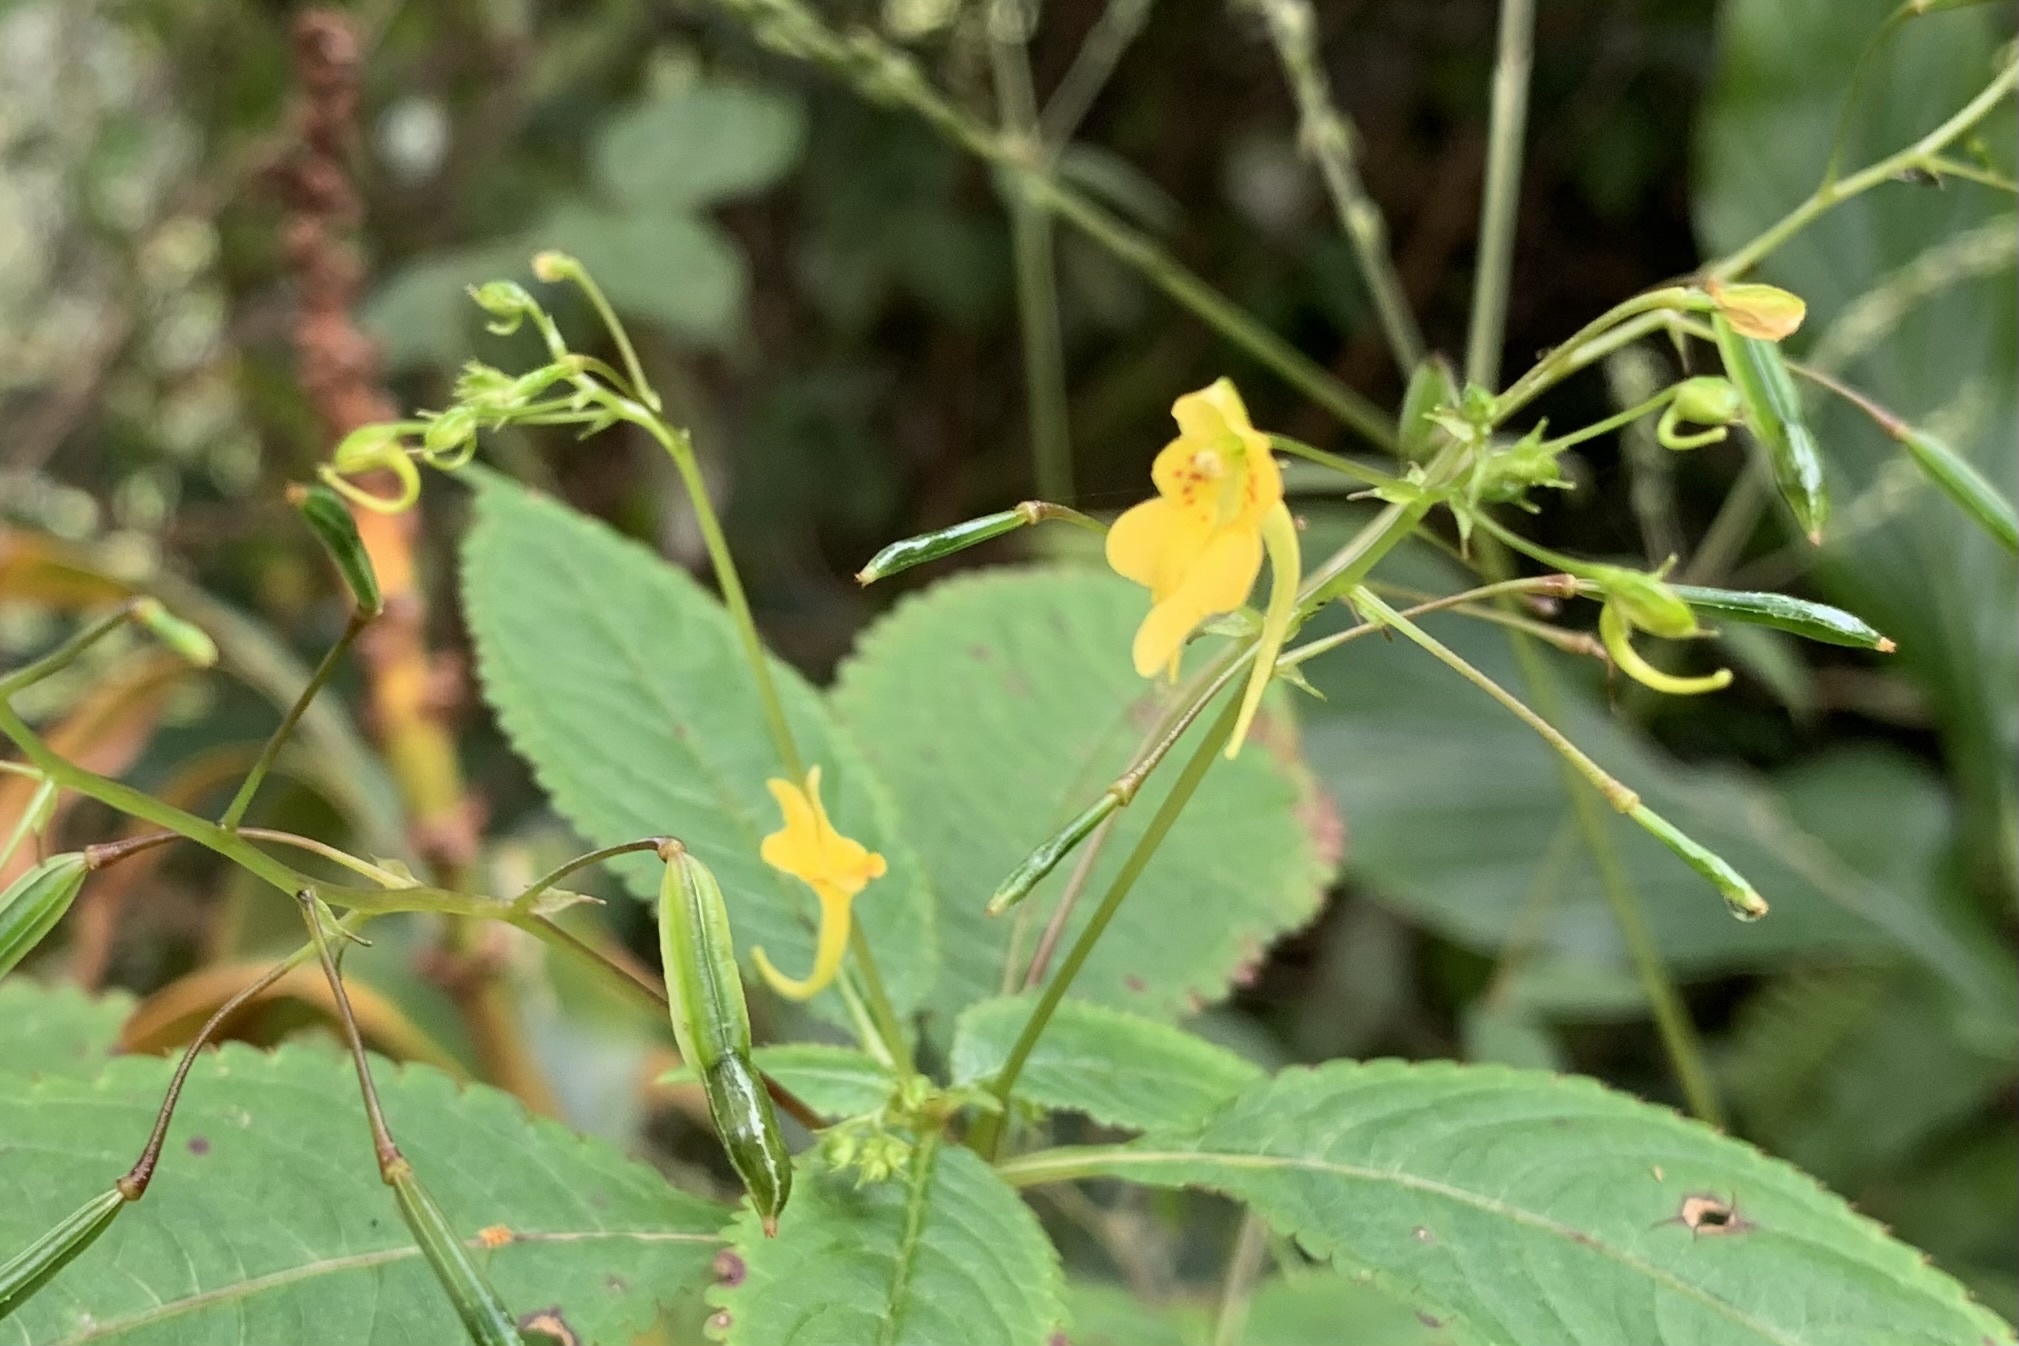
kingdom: Plantae
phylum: Tracheophyta
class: Magnoliopsida
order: Ericales
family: Balsaminaceae
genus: Impatiens
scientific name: Impatiens racemosa
